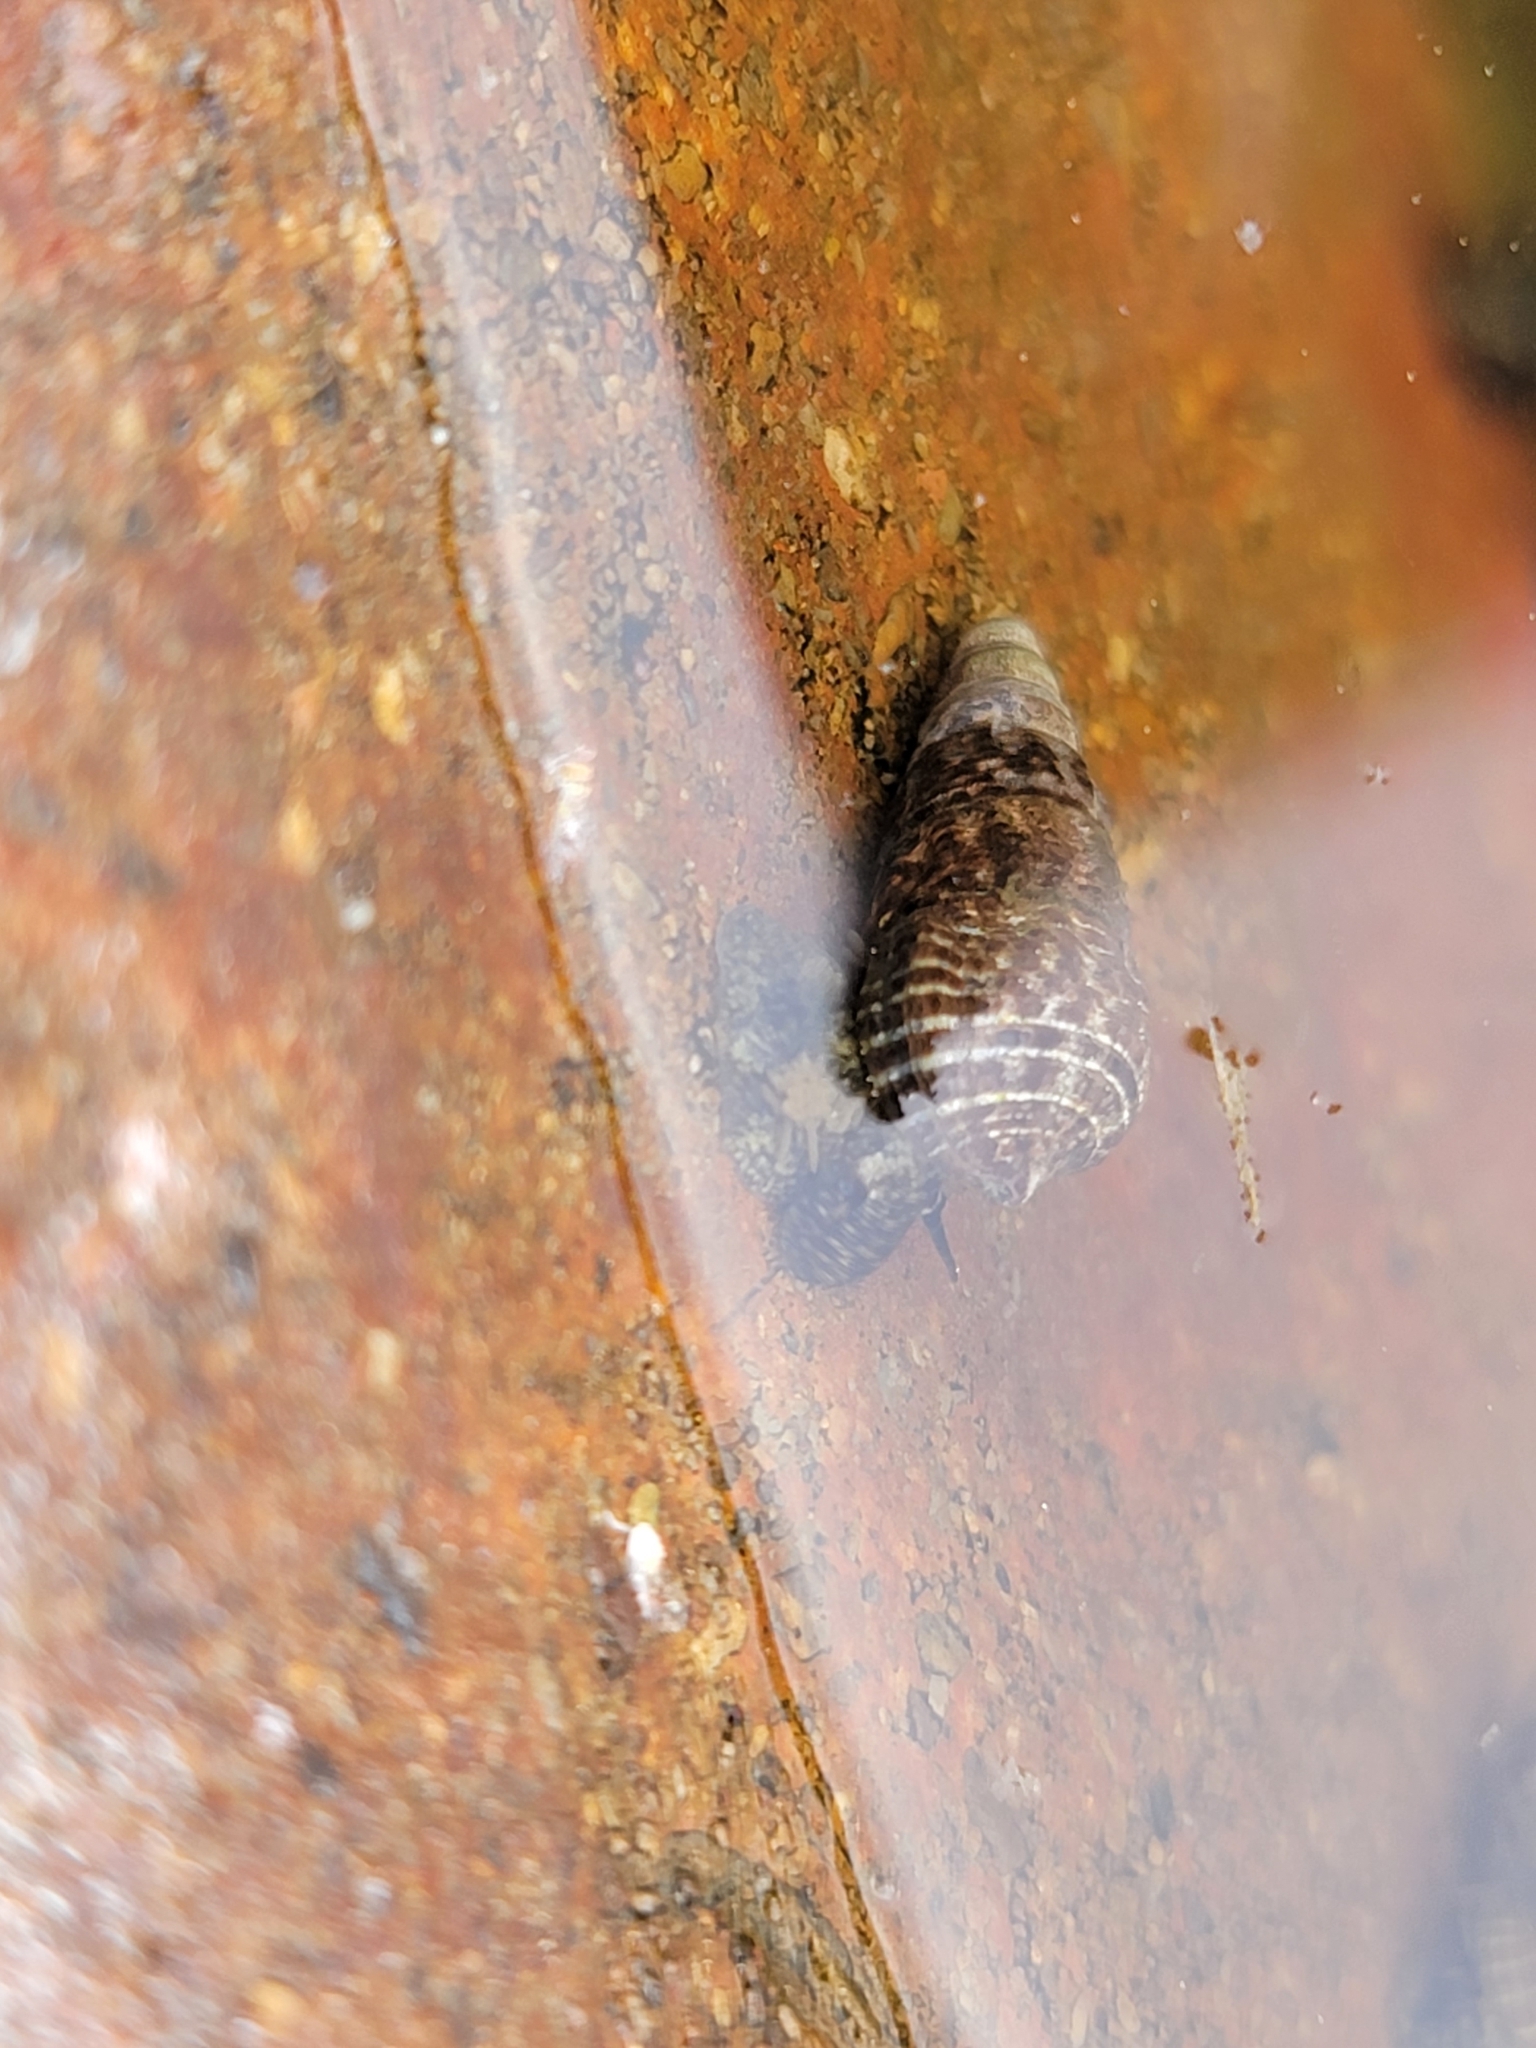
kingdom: Animalia
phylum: Mollusca
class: Gastropoda
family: Batillariidae
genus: Batillaria
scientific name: Batillaria attramentaria
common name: Japanese false cerith
